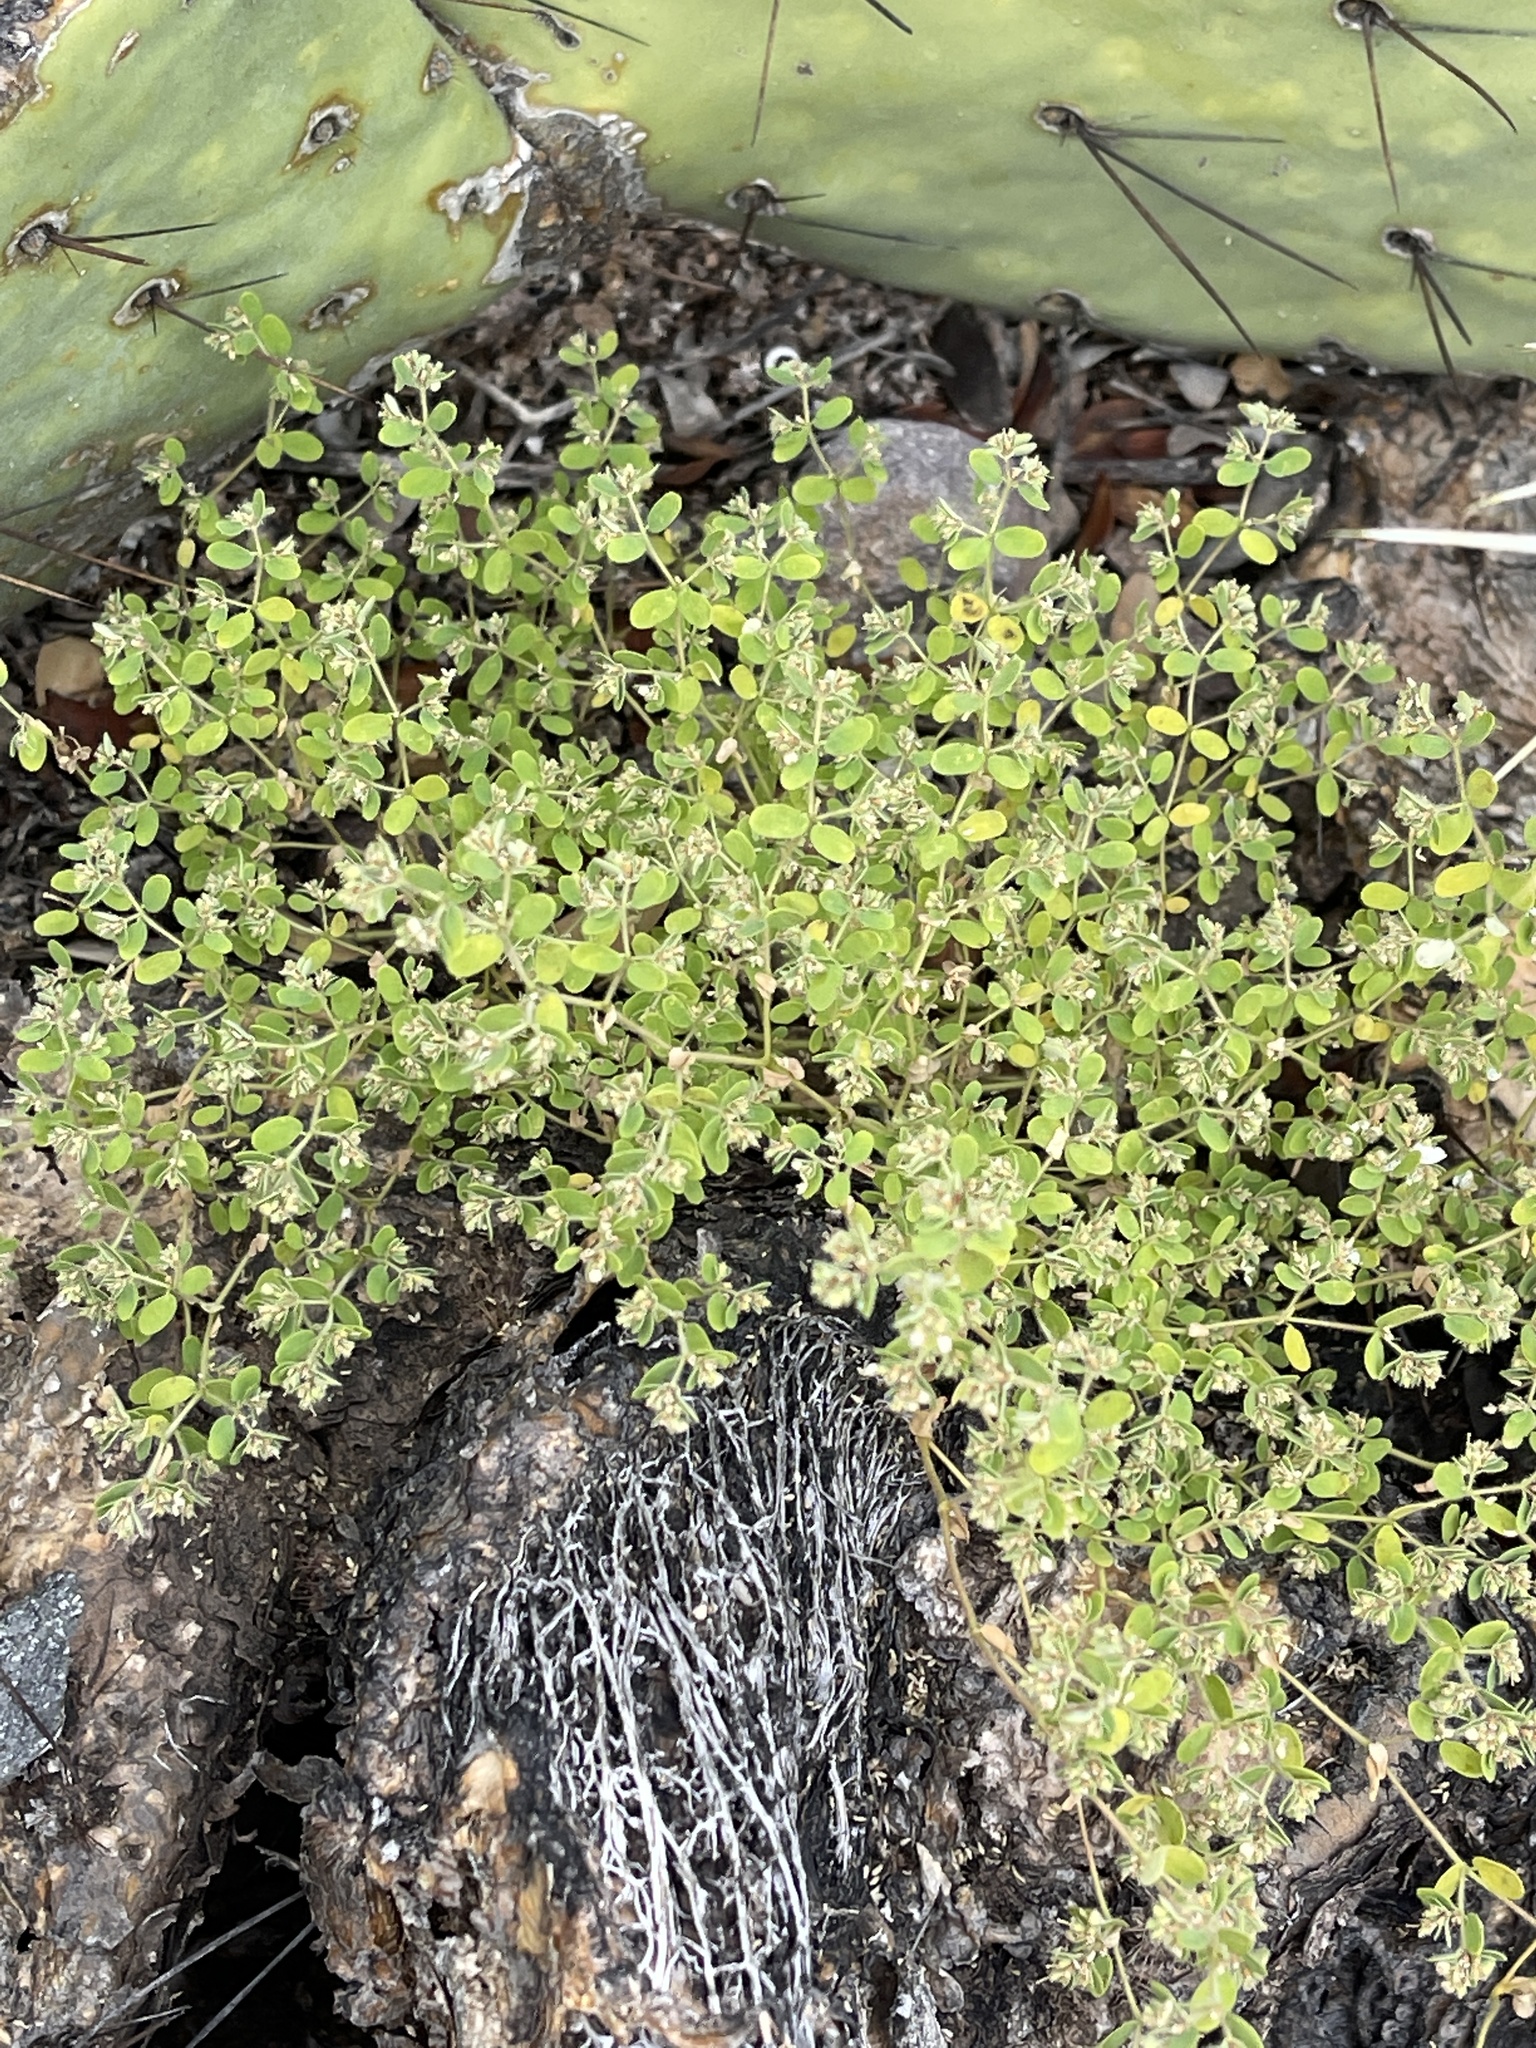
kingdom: Plantae
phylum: Tracheophyta
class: Magnoliopsida
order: Malpighiales
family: Euphorbiaceae
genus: Euphorbia
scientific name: Euphorbia arizonica
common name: Arizona spurge
